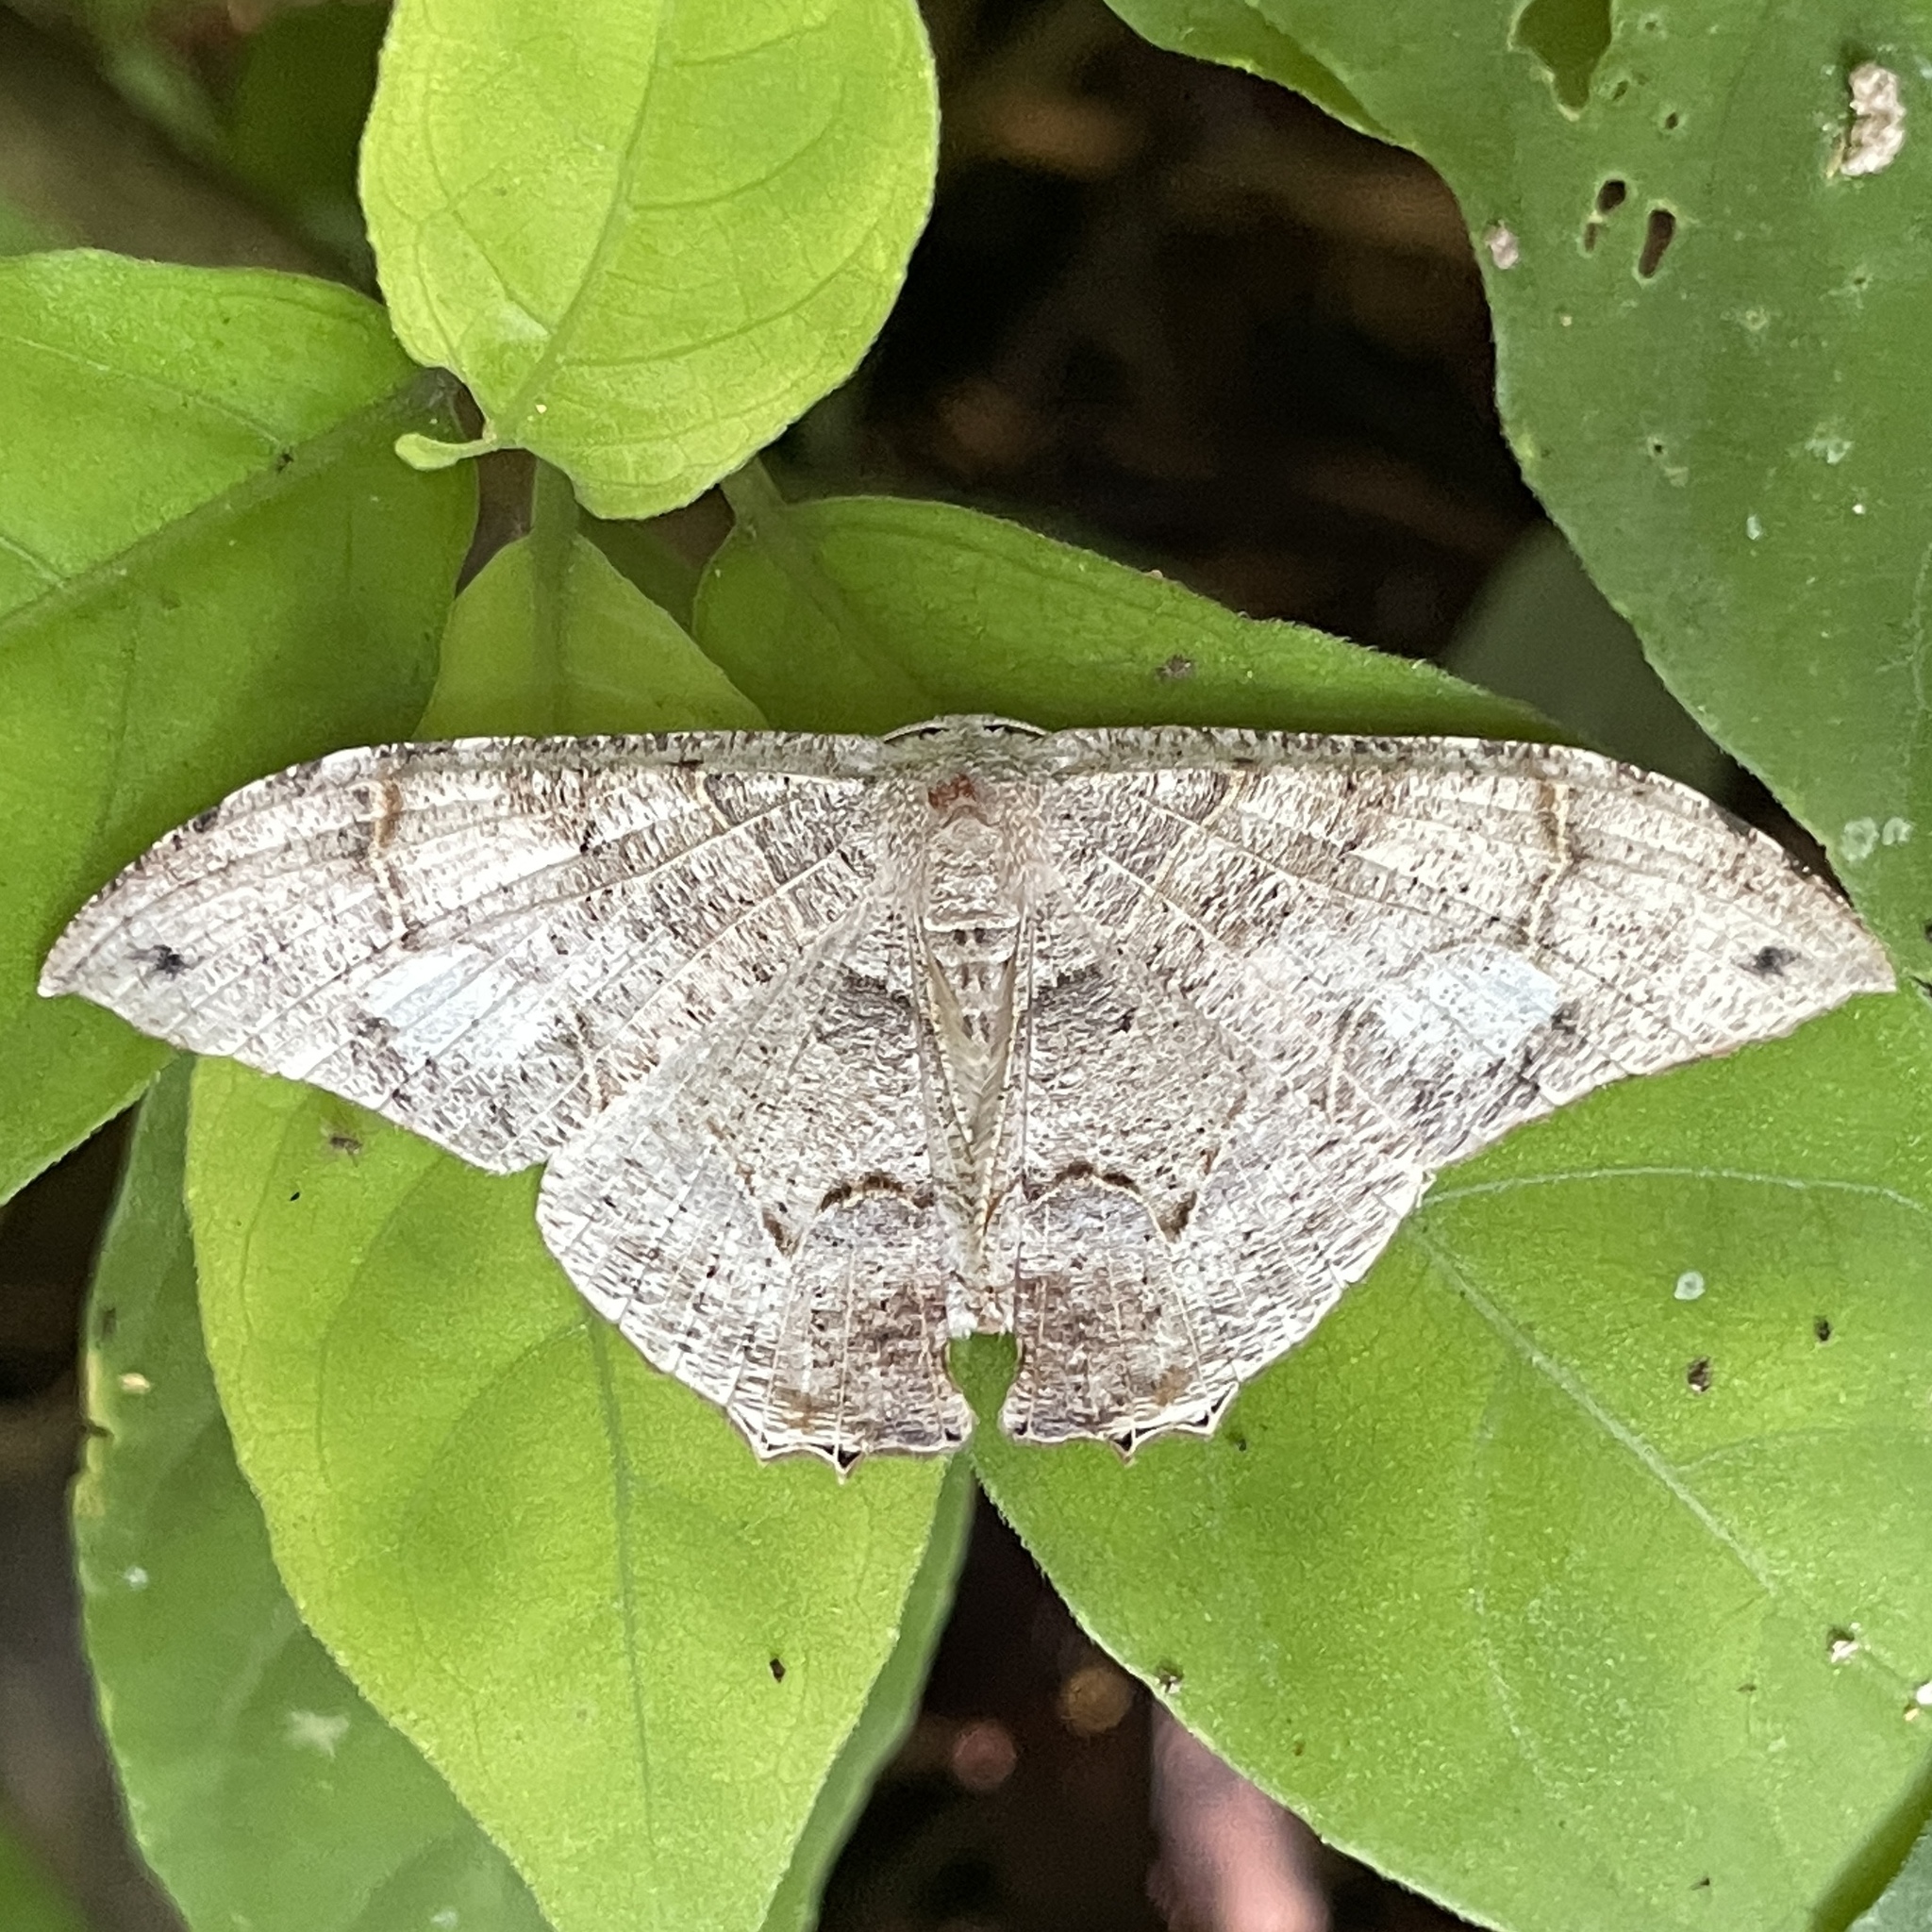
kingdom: Animalia
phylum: Arthropoda
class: Insecta
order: Lepidoptera
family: Uraniidae
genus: Syngria
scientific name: Syngria druidaria
